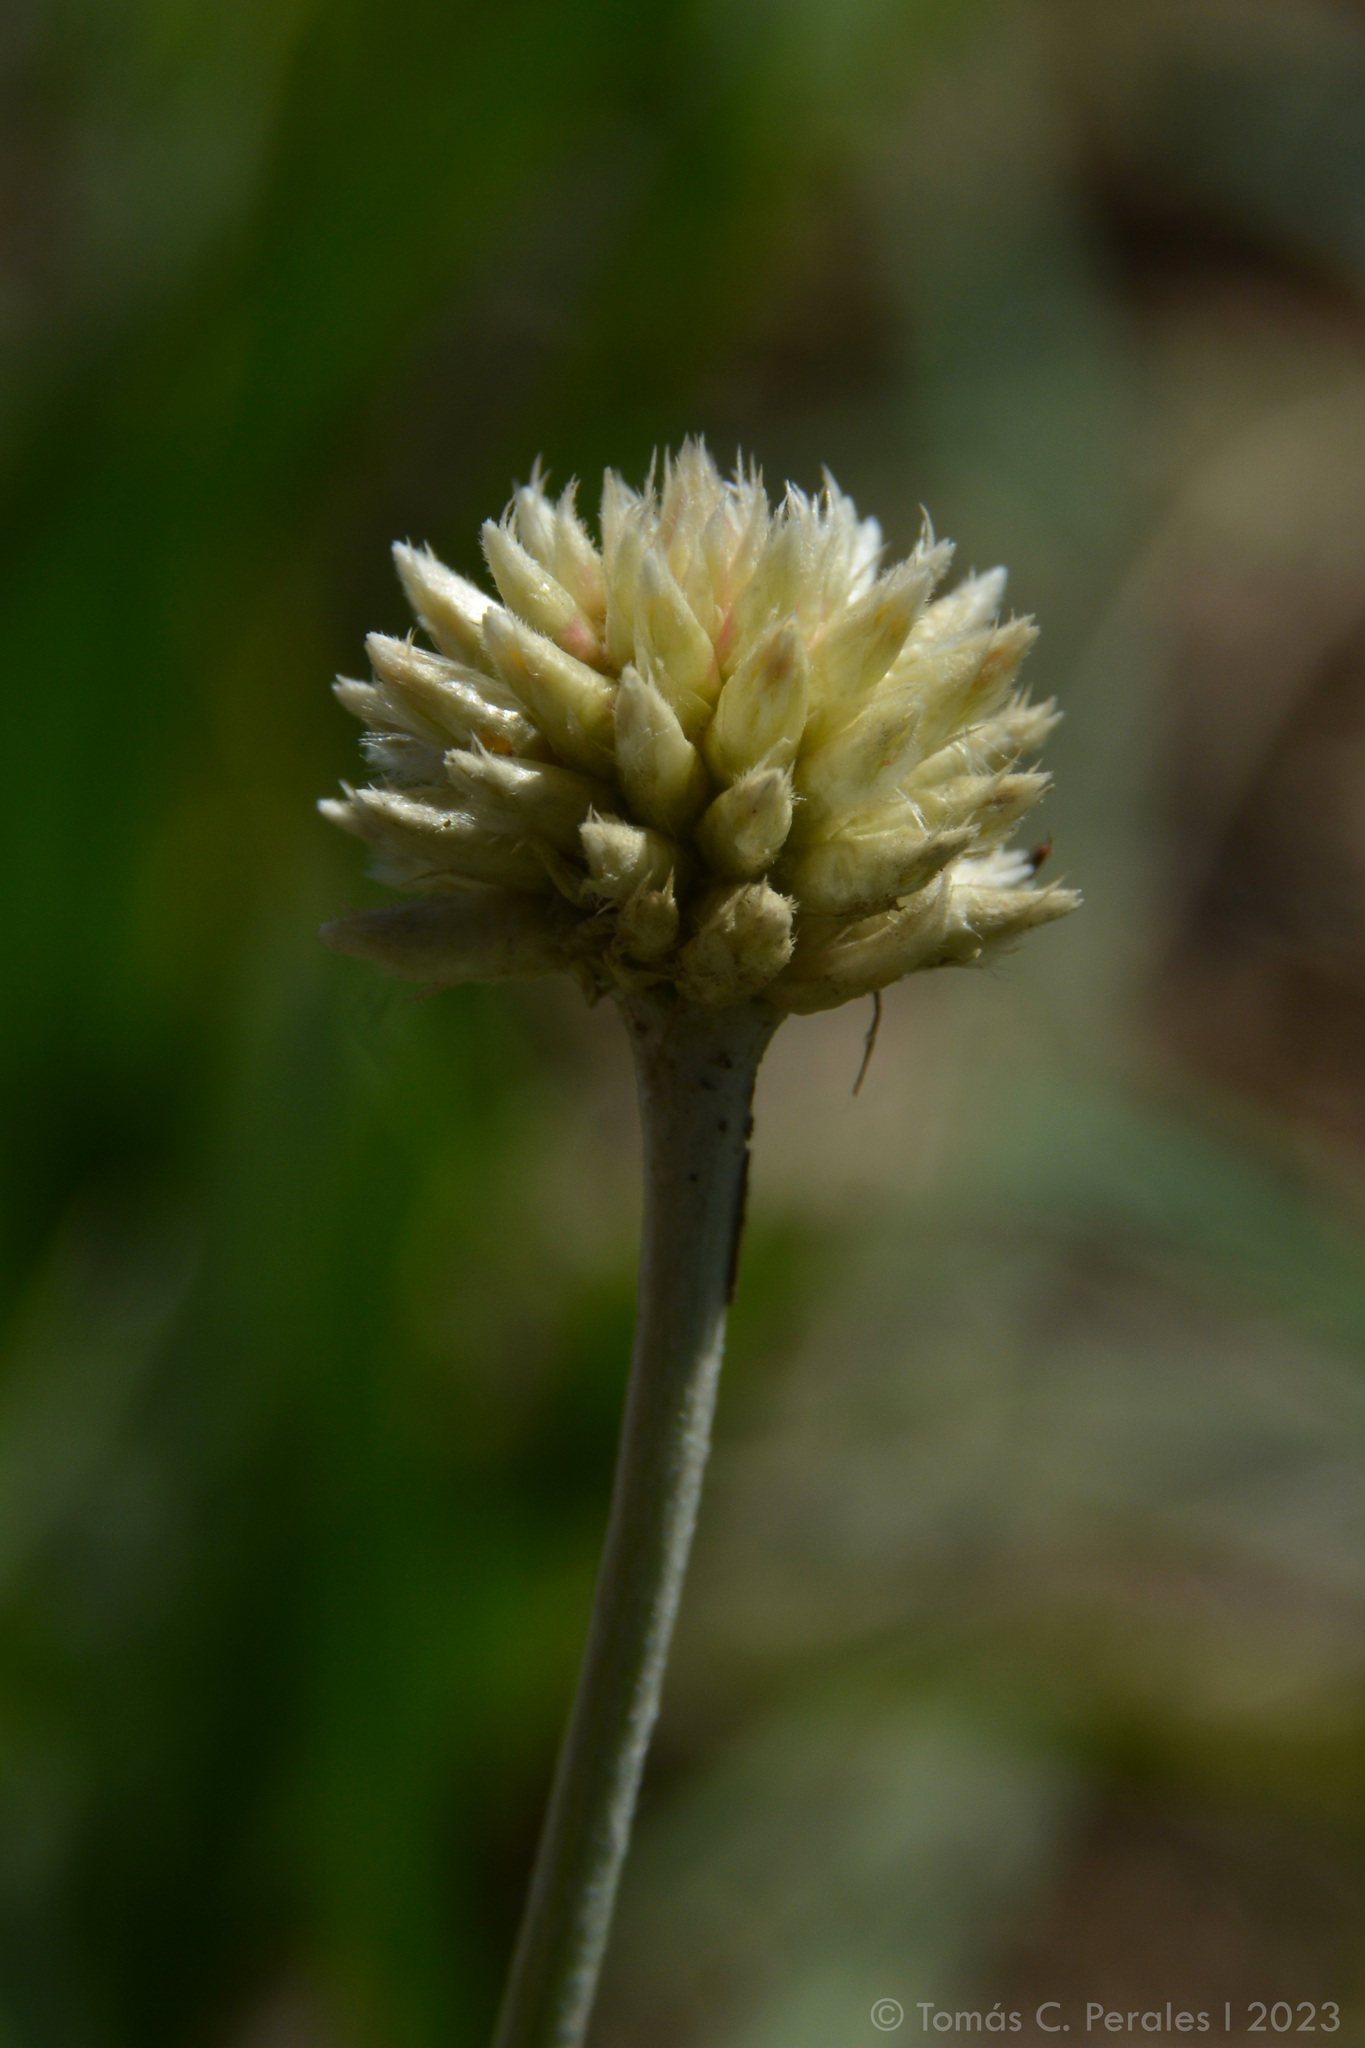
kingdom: Plantae
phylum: Tracheophyta
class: Magnoliopsida
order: Caryophyllales
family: Amaranthaceae
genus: Pfaffia
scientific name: Pfaffia gnaphalioides
